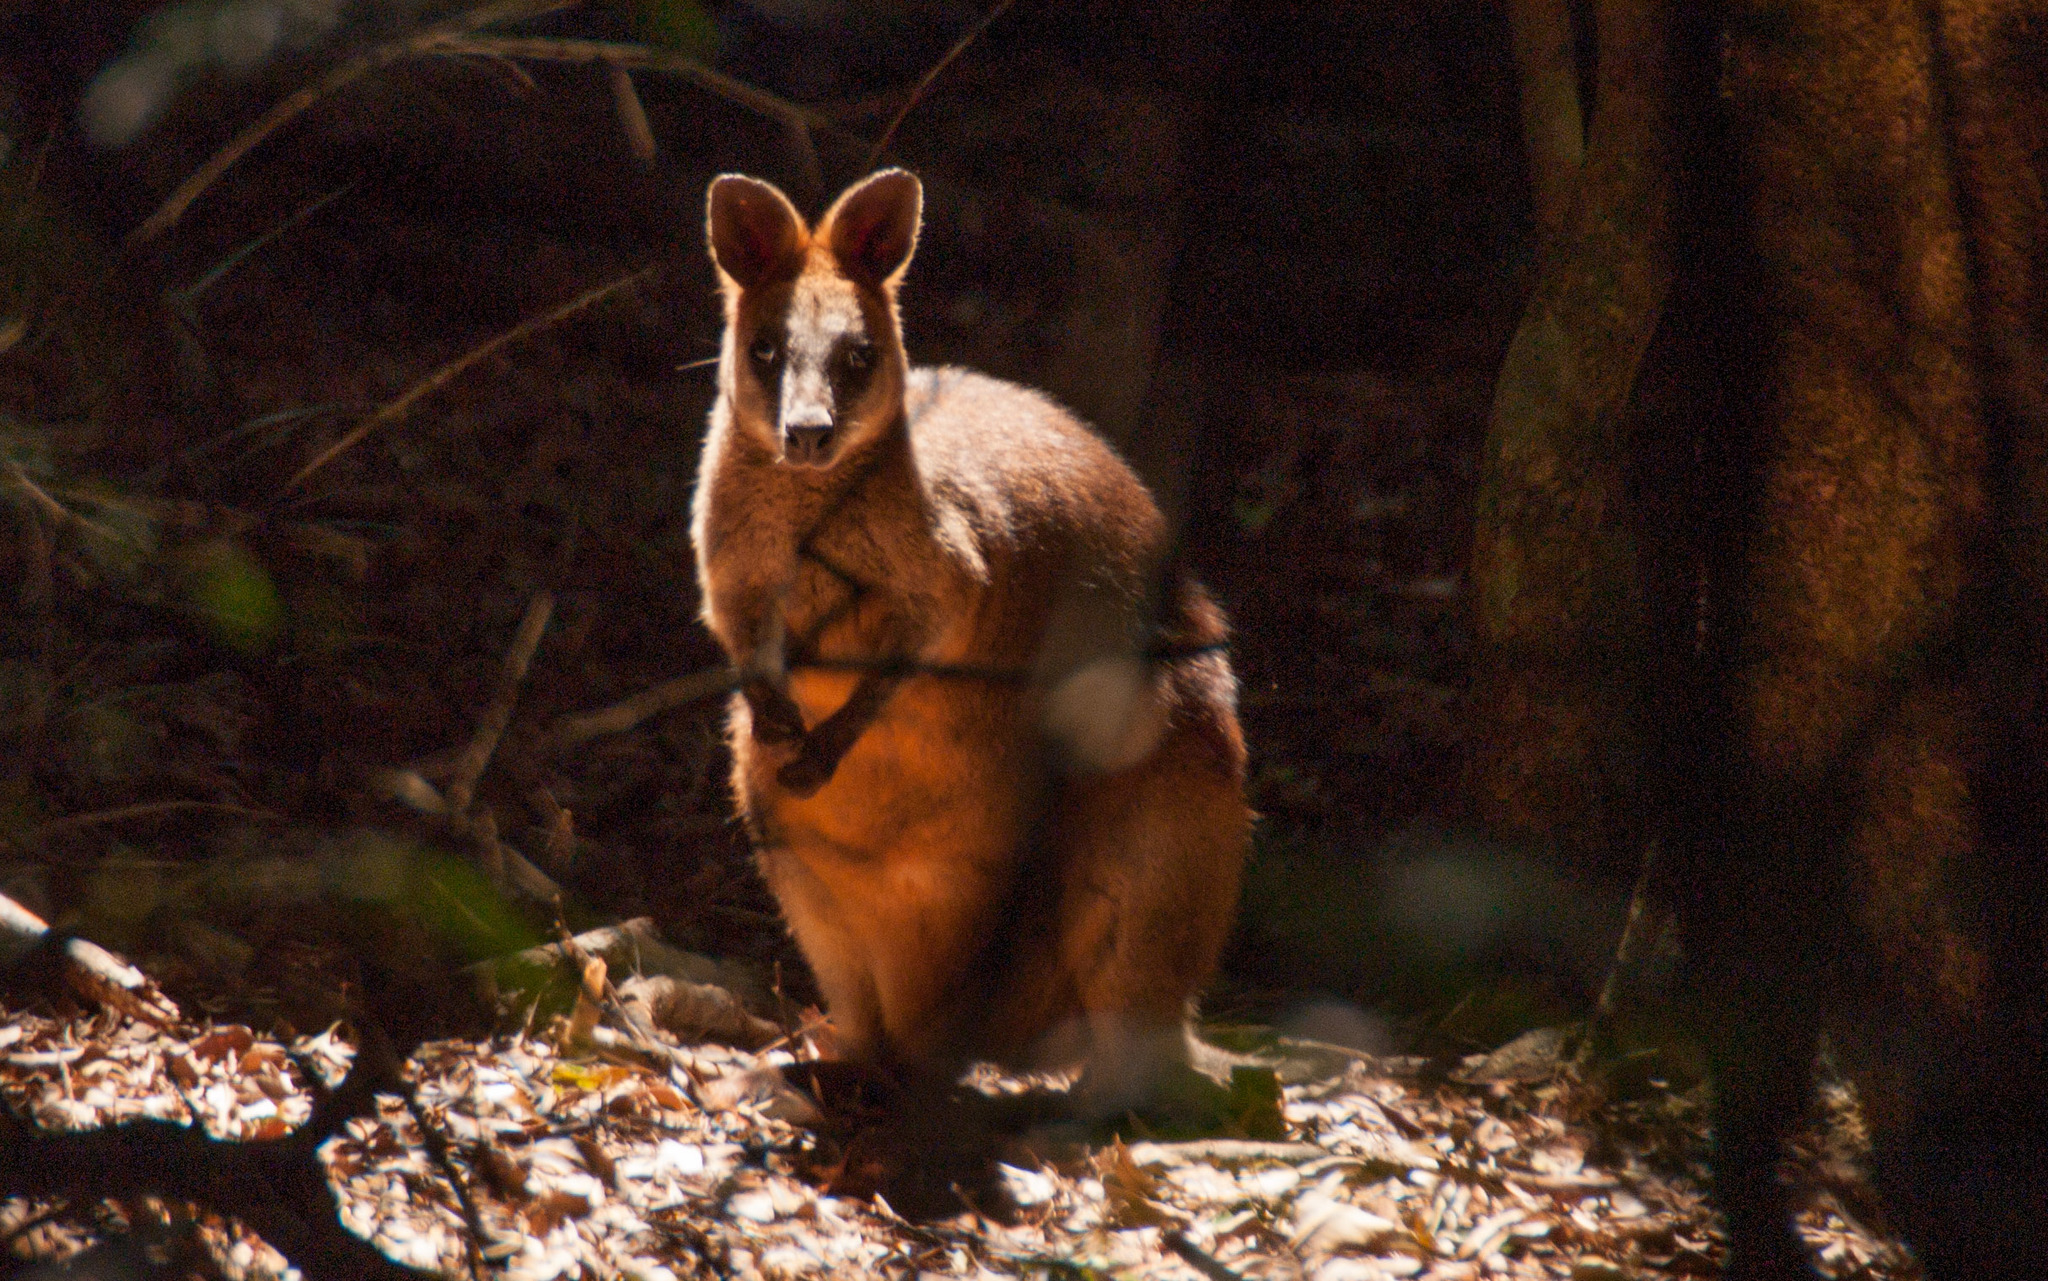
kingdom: Animalia
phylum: Chordata
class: Mammalia
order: Diprotodontia
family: Macropodidae
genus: Wallabia
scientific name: Wallabia bicolor
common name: Swamp wallaby
